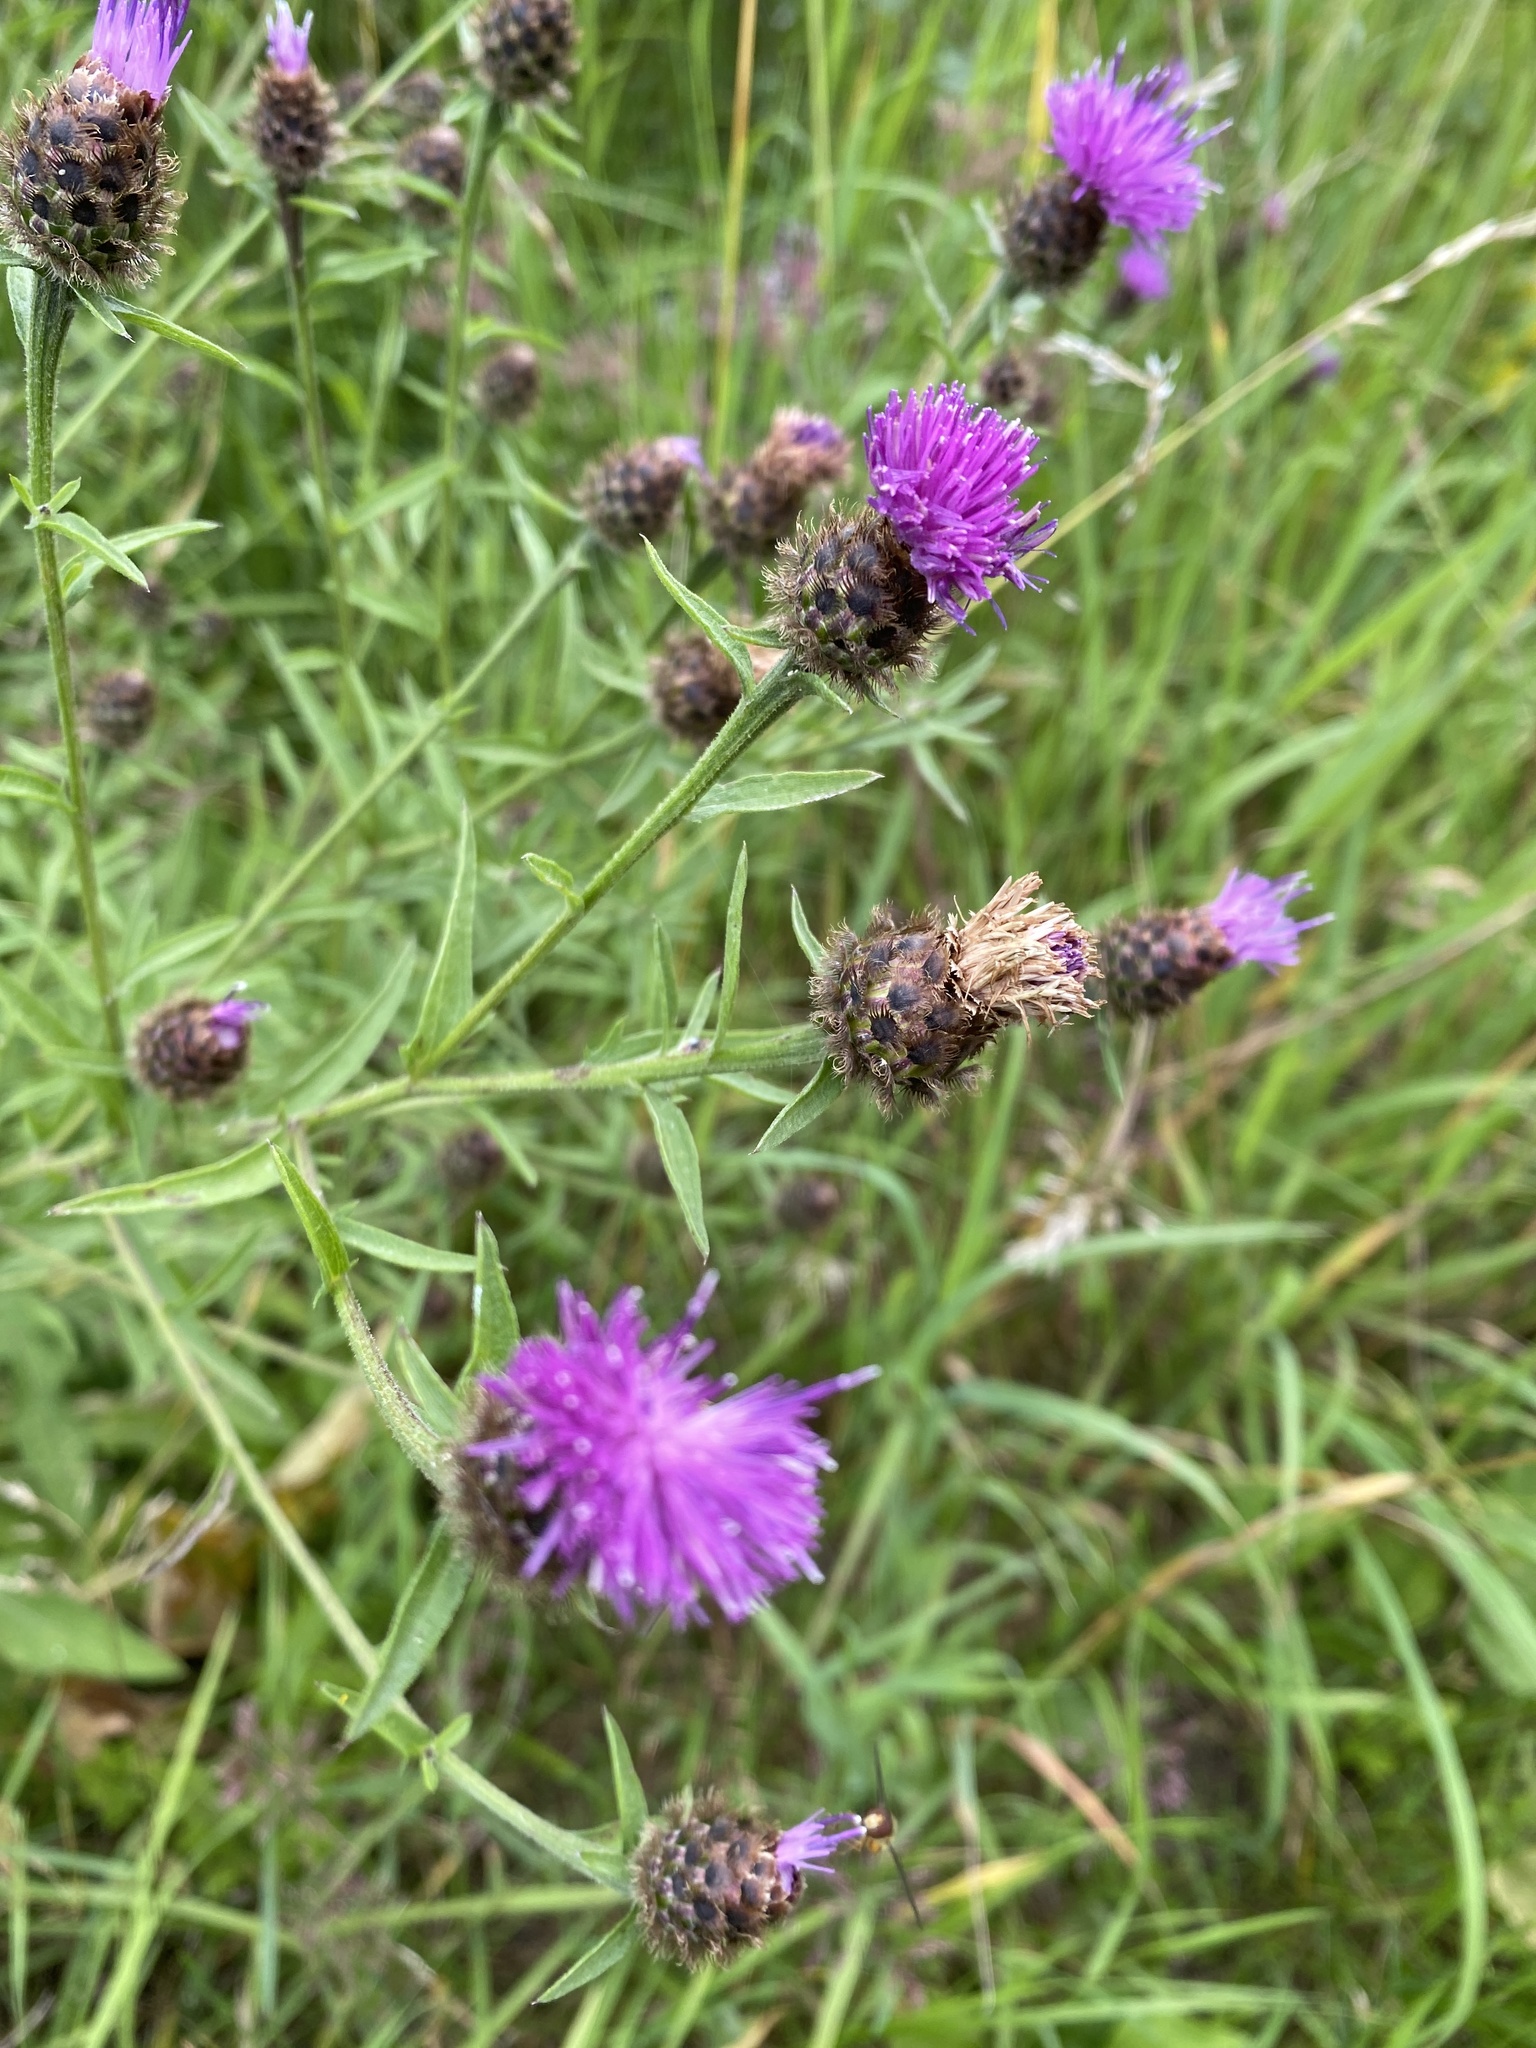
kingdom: Plantae
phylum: Tracheophyta
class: Magnoliopsida
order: Asterales
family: Asteraceae
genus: Centaurea
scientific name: Centaurea nigra
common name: Lesser knapweed
